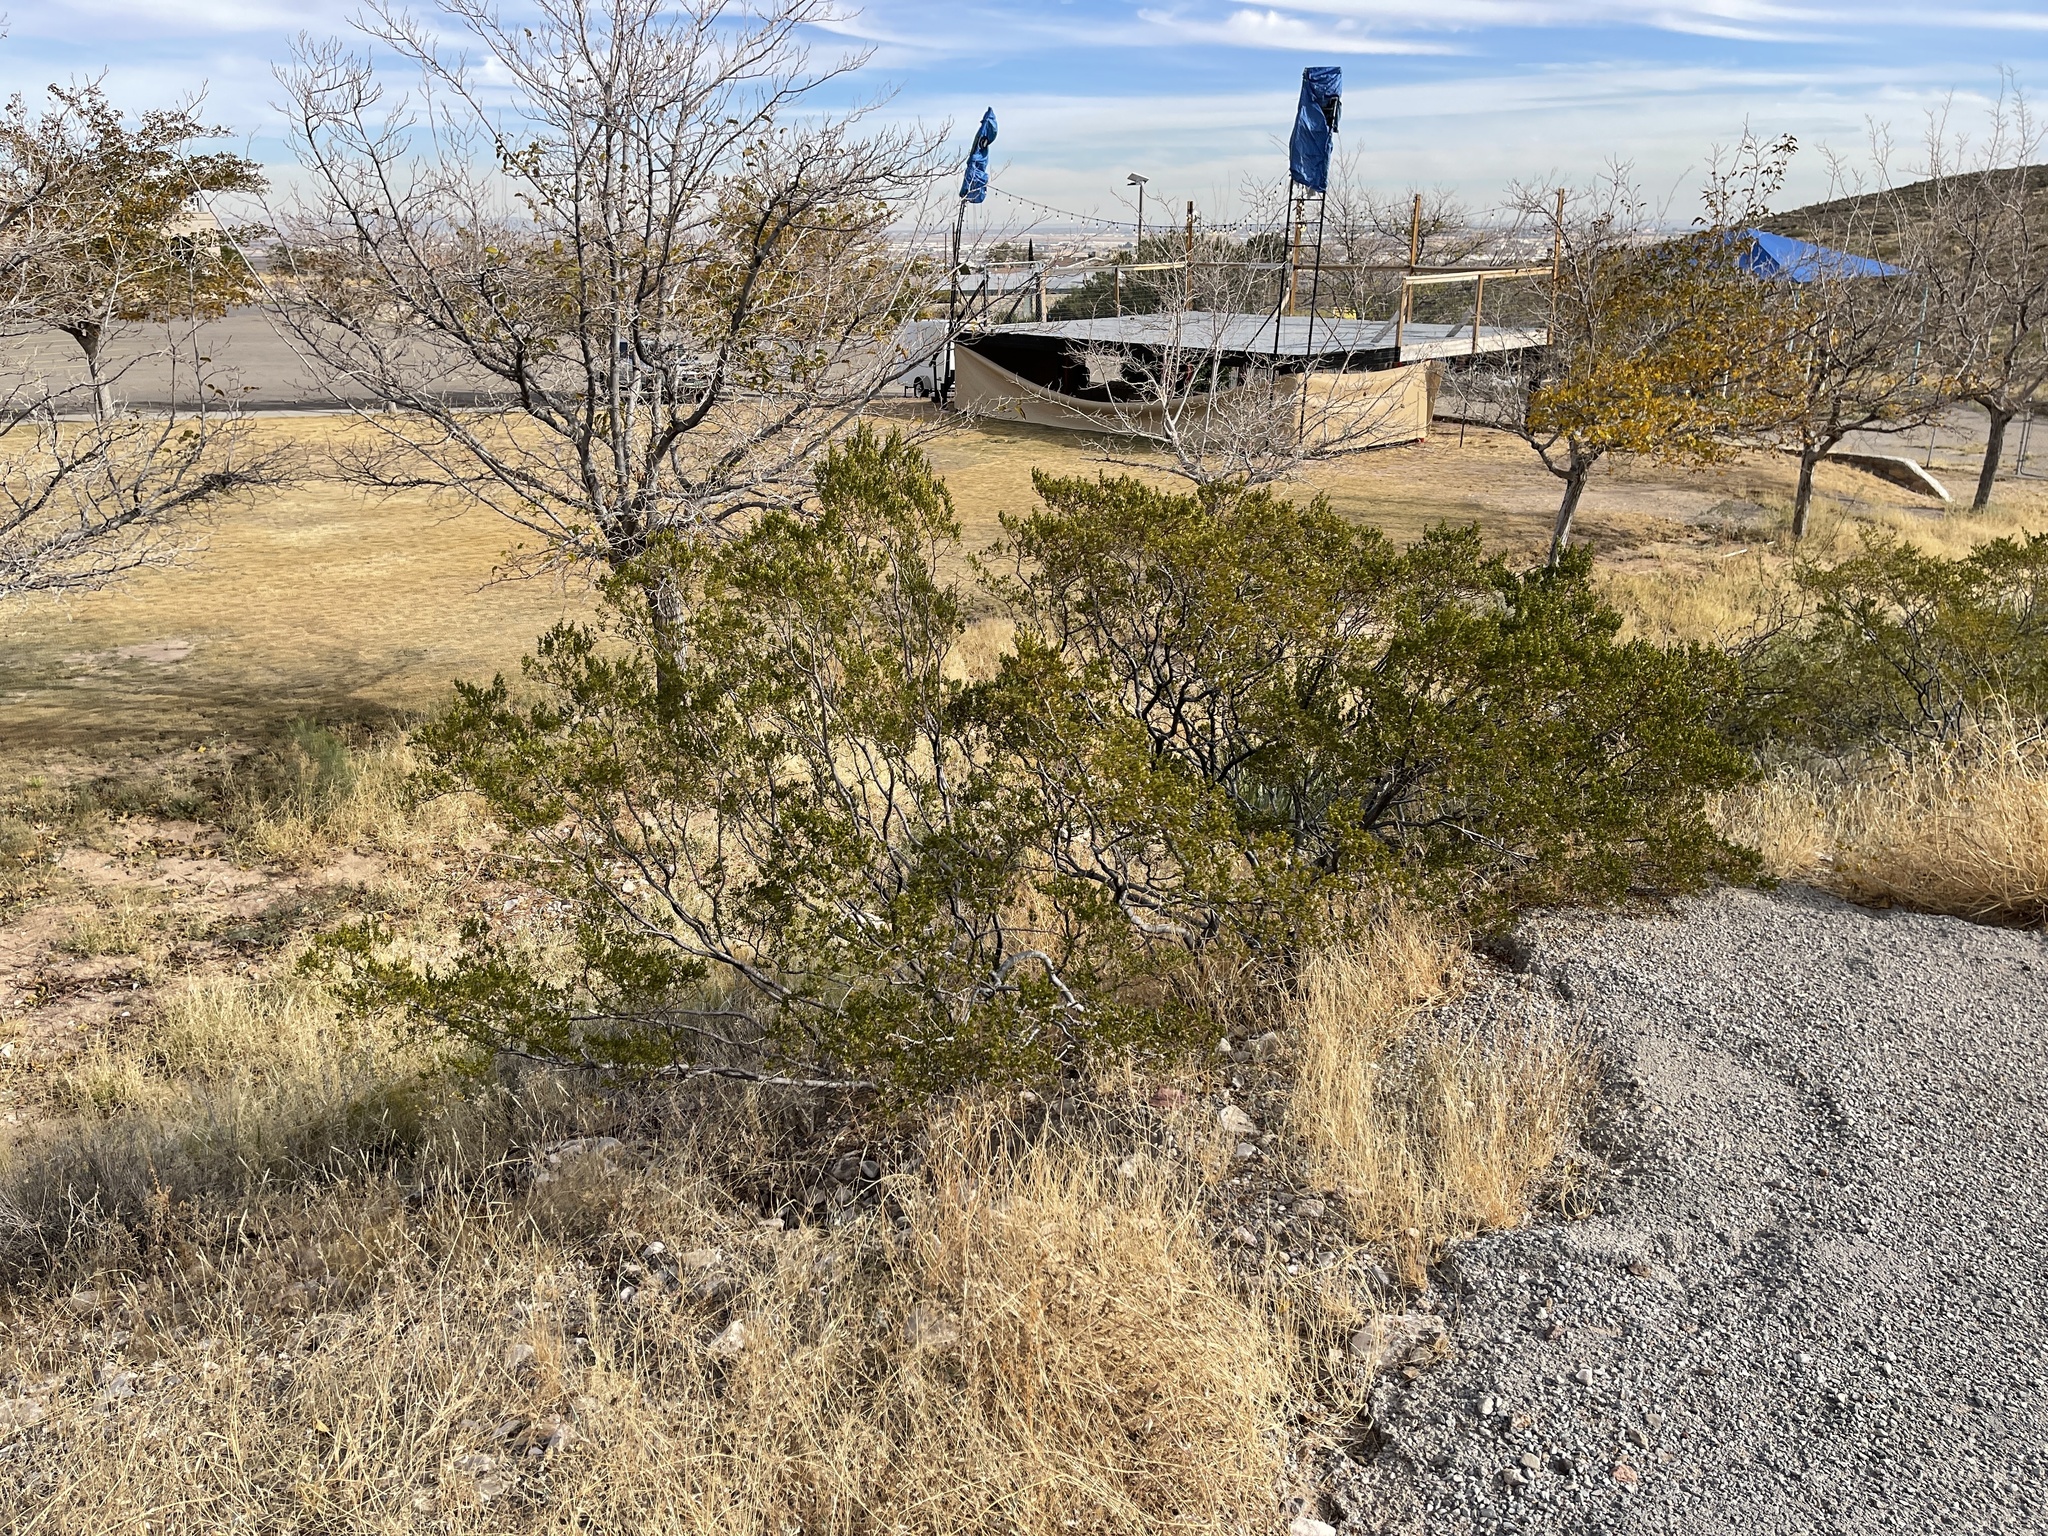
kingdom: Plantae
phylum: Tracheophyta
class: Magnoliopsida
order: Zygophyllales
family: Zygophyllaceae
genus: Larrea
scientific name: Larrea tridentata
